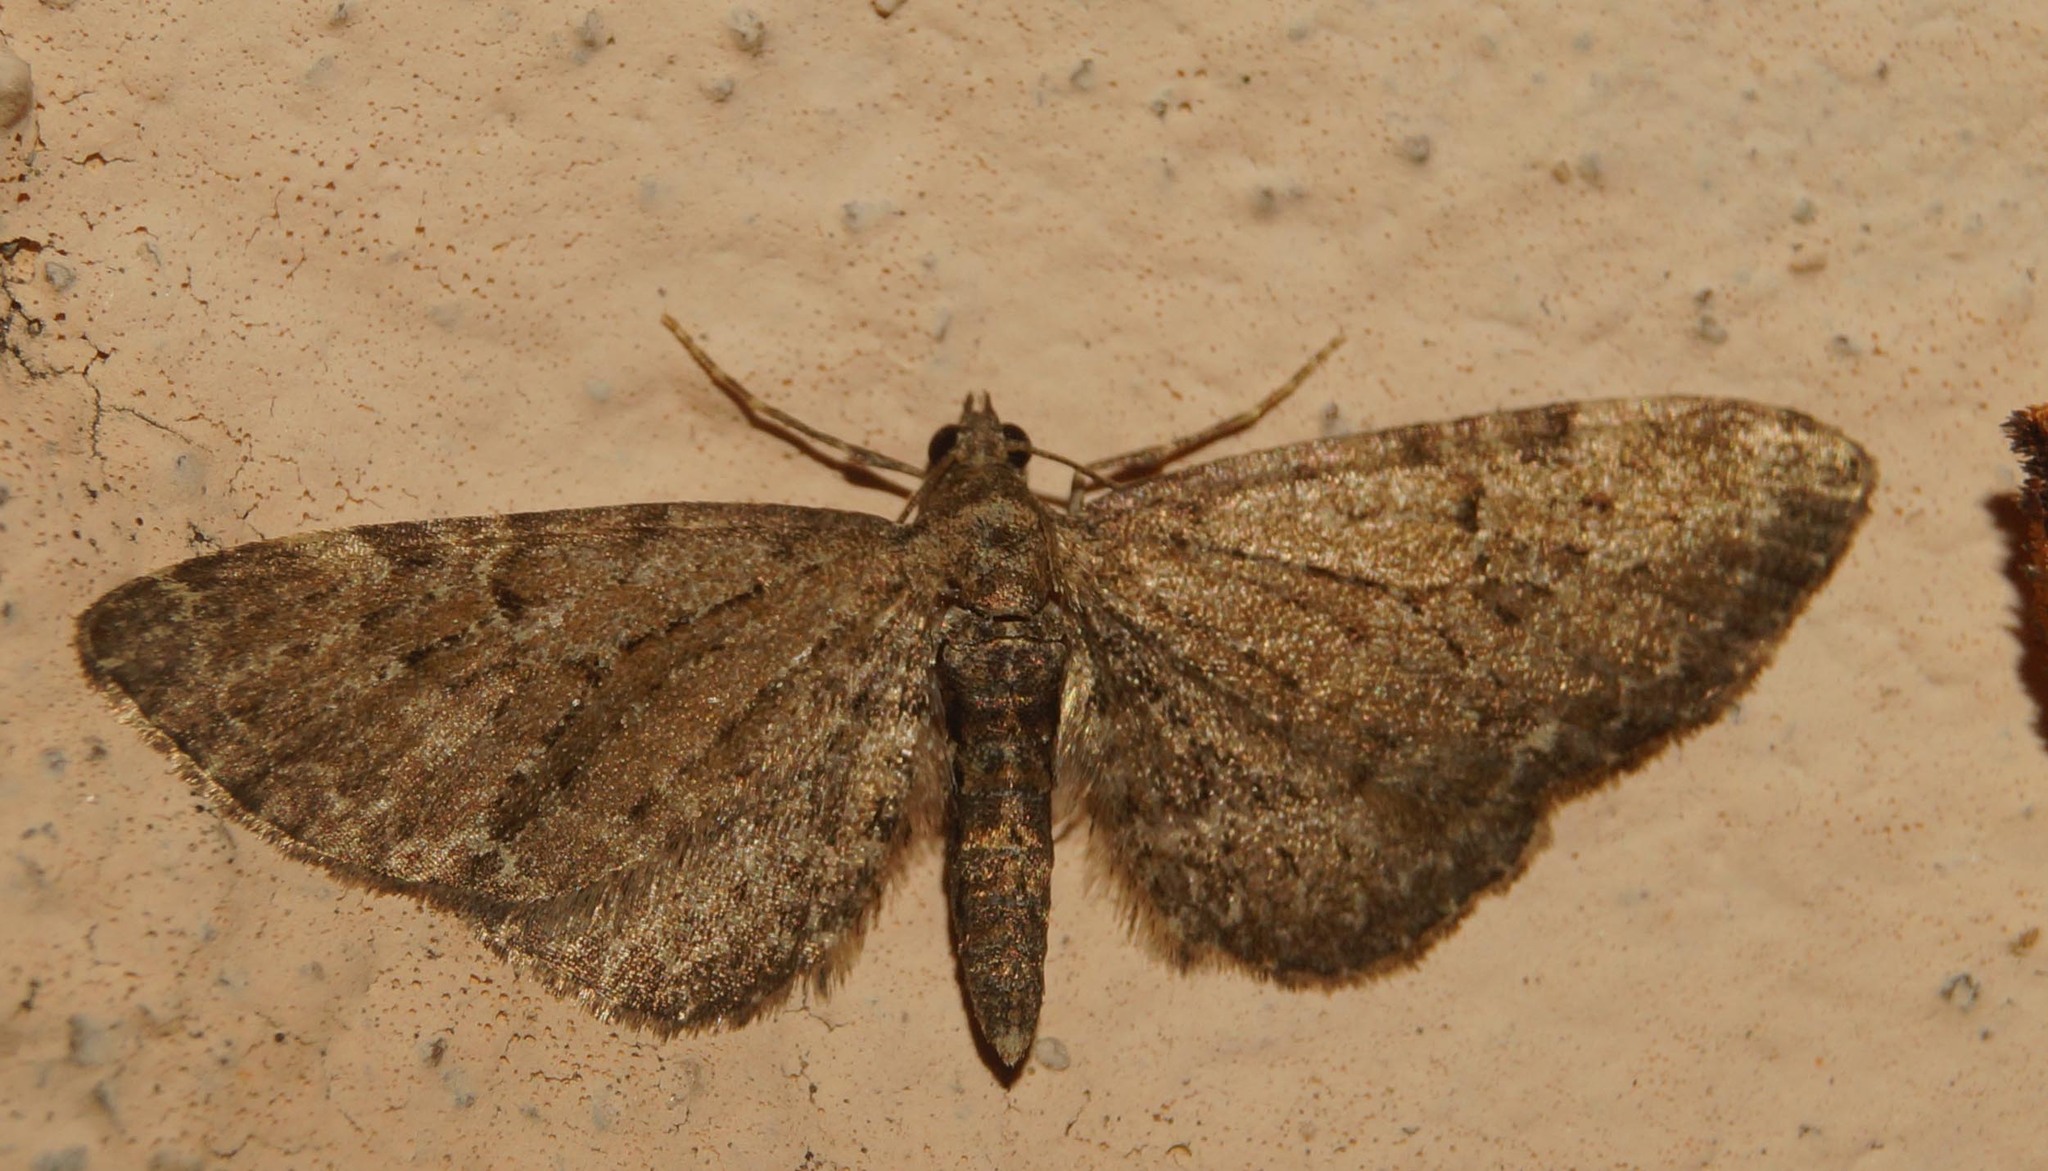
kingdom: Animalia
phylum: Arthropoda
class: Insecta
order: Lepidoptera
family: Geometridae
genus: Eupithecia
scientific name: Eupithecia vulgata
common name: Common pug
